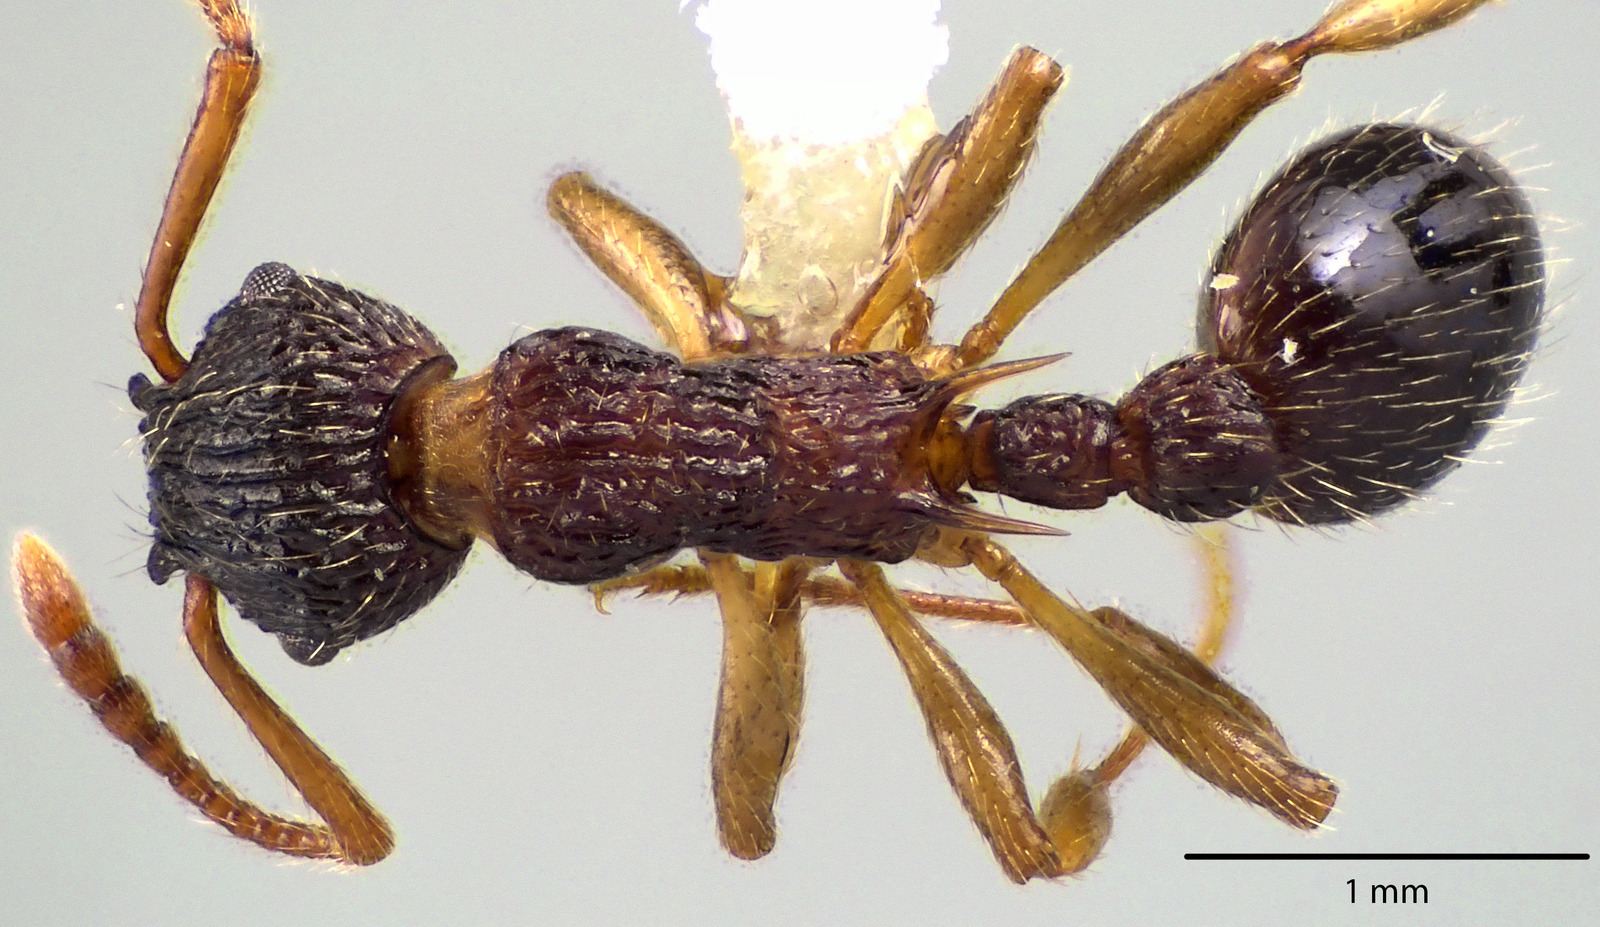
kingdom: Animalia
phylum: Arthropoda
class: Insecta
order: Hymenoptera
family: Formicidae
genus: Myrmica
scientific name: Myrmica punctiventris
